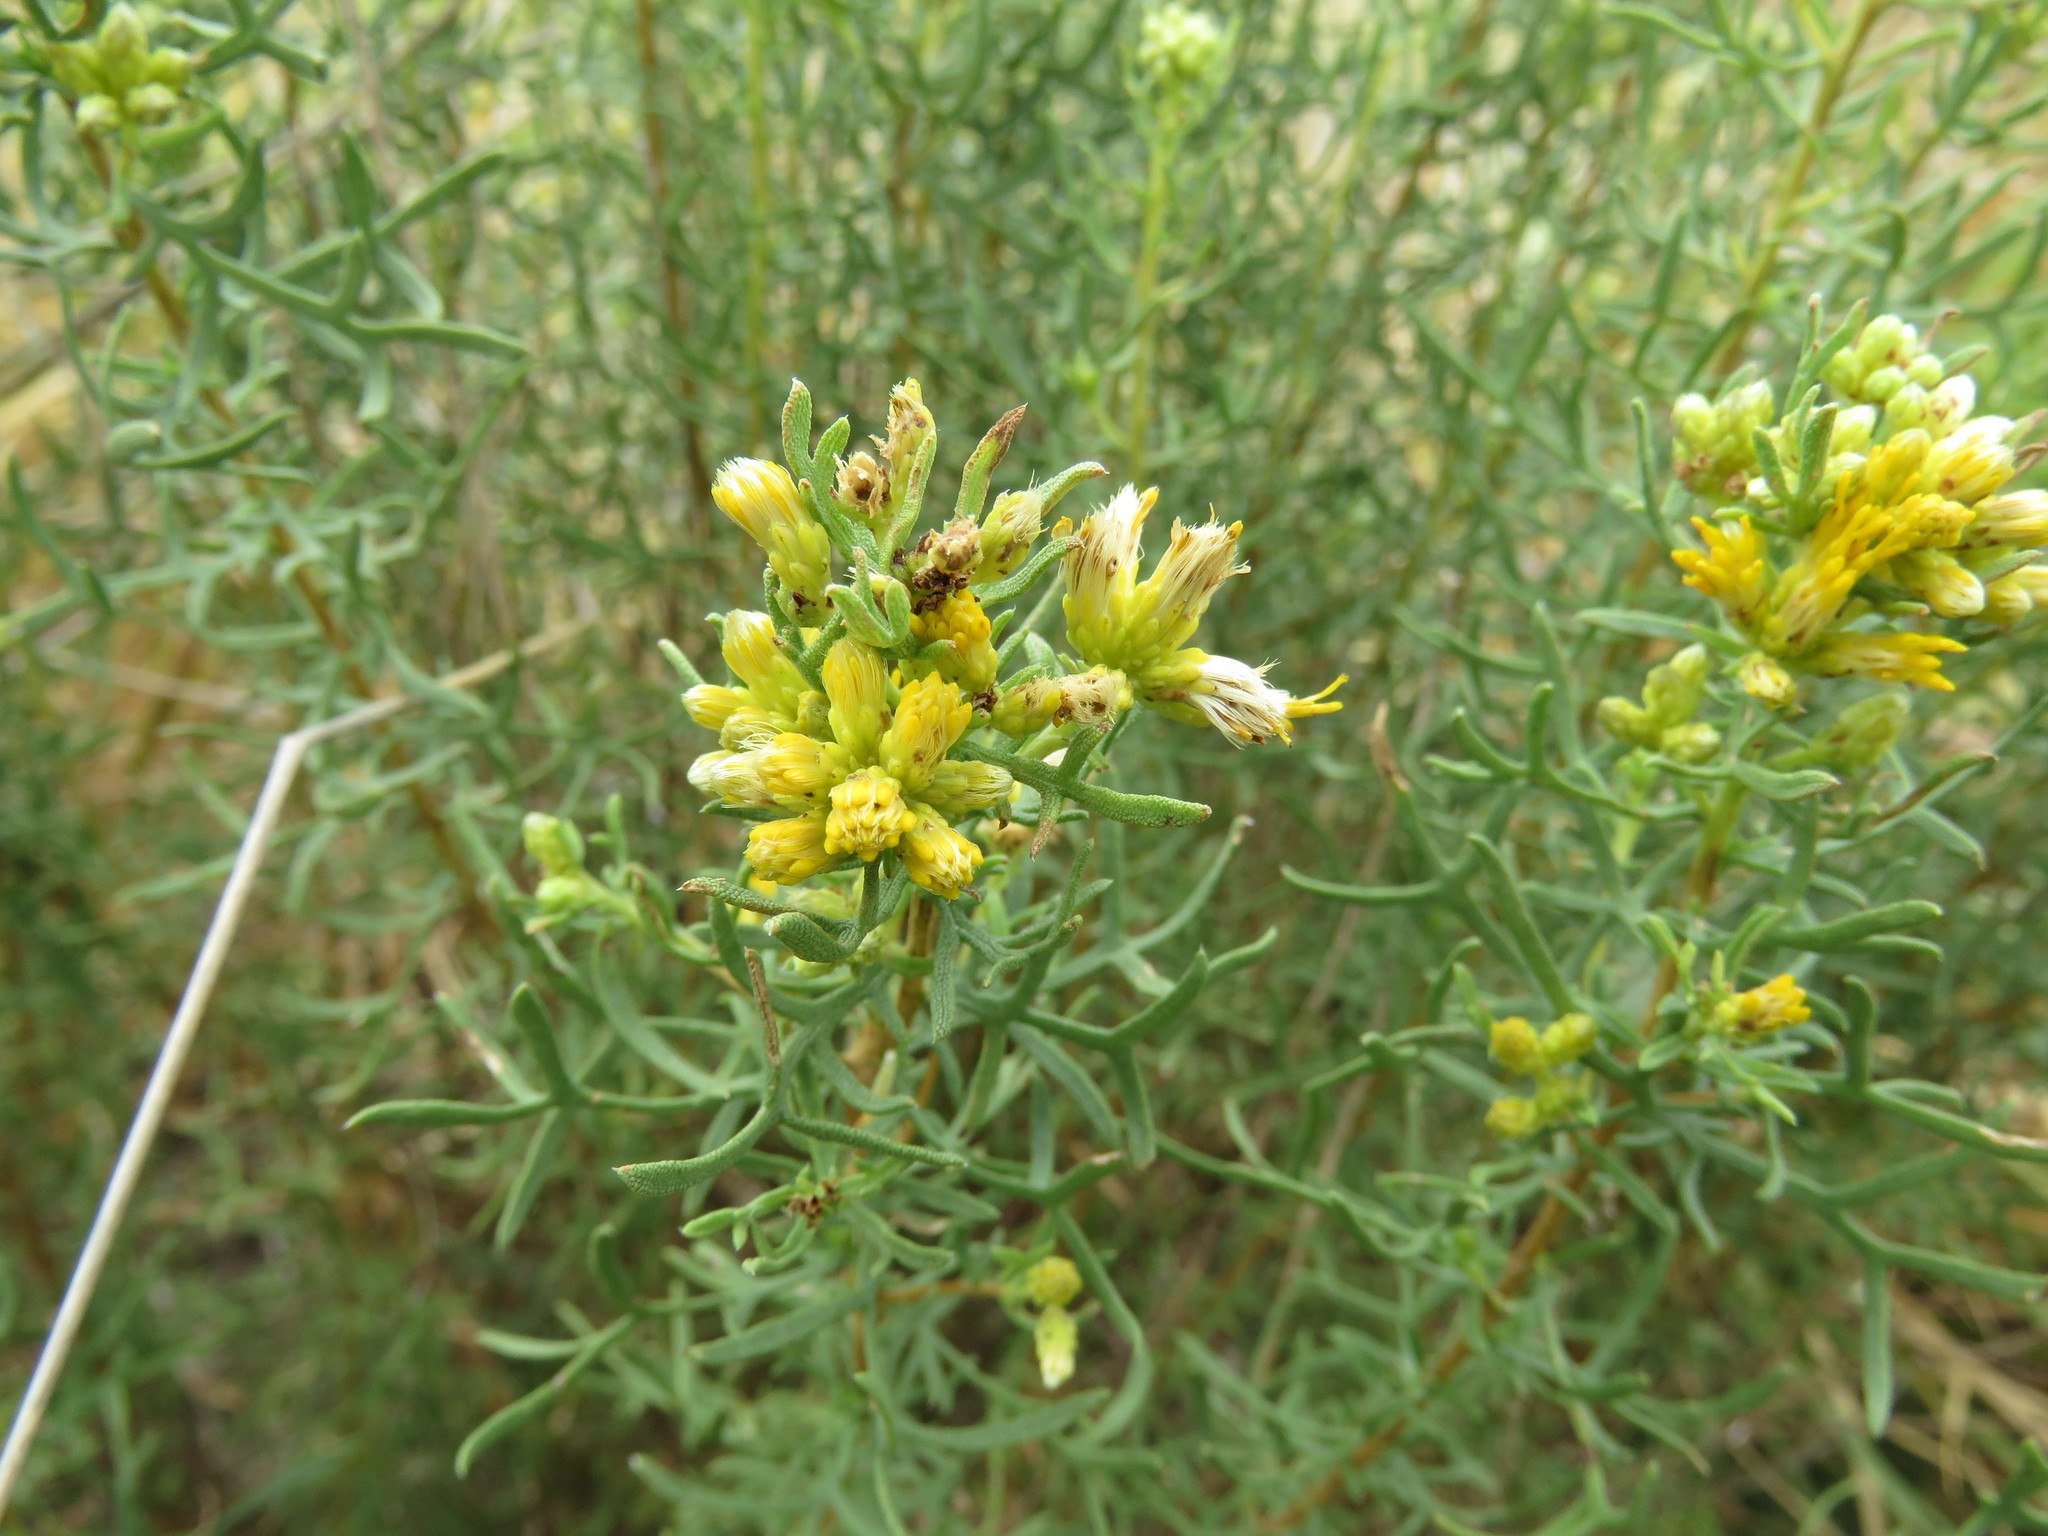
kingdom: Plantae
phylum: Tracheophyta
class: Magnoliopsida
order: Asterales
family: Asteraceae
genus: Isocoma
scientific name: Isocoma coronopifolia
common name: Common jimmyweed
